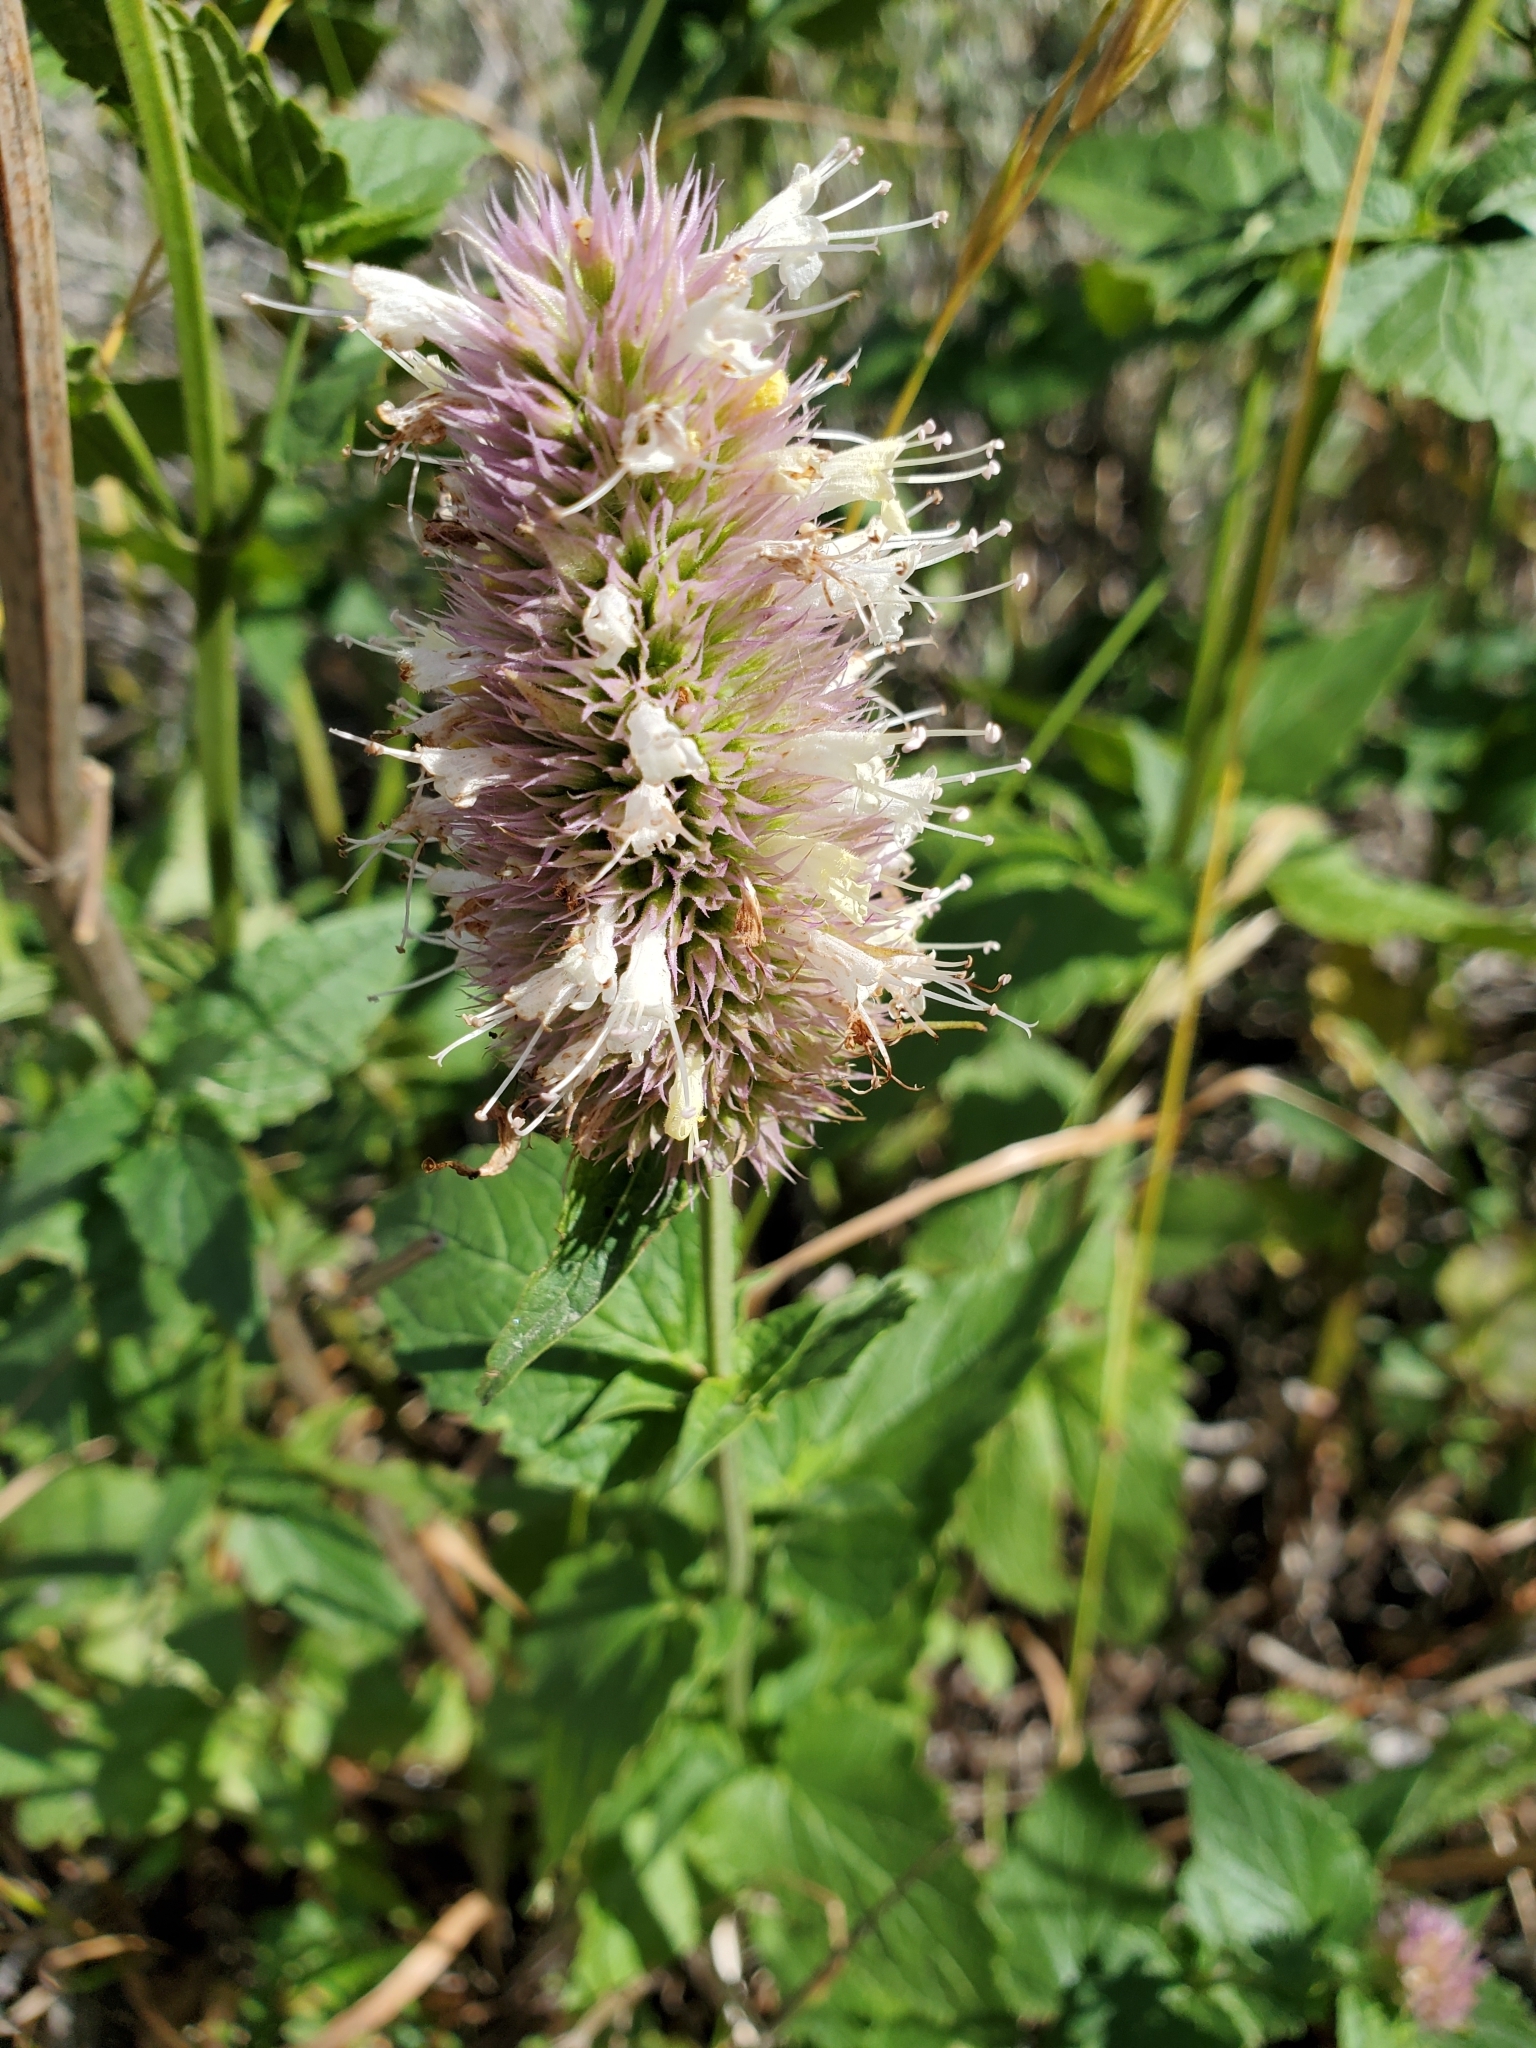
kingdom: Plantae
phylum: Tracheophyta
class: Magnoliopsida
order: Lamiales
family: Lamiaceae
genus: Agastache
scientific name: Agastache urticifolia
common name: Horsemint giant hyssop
